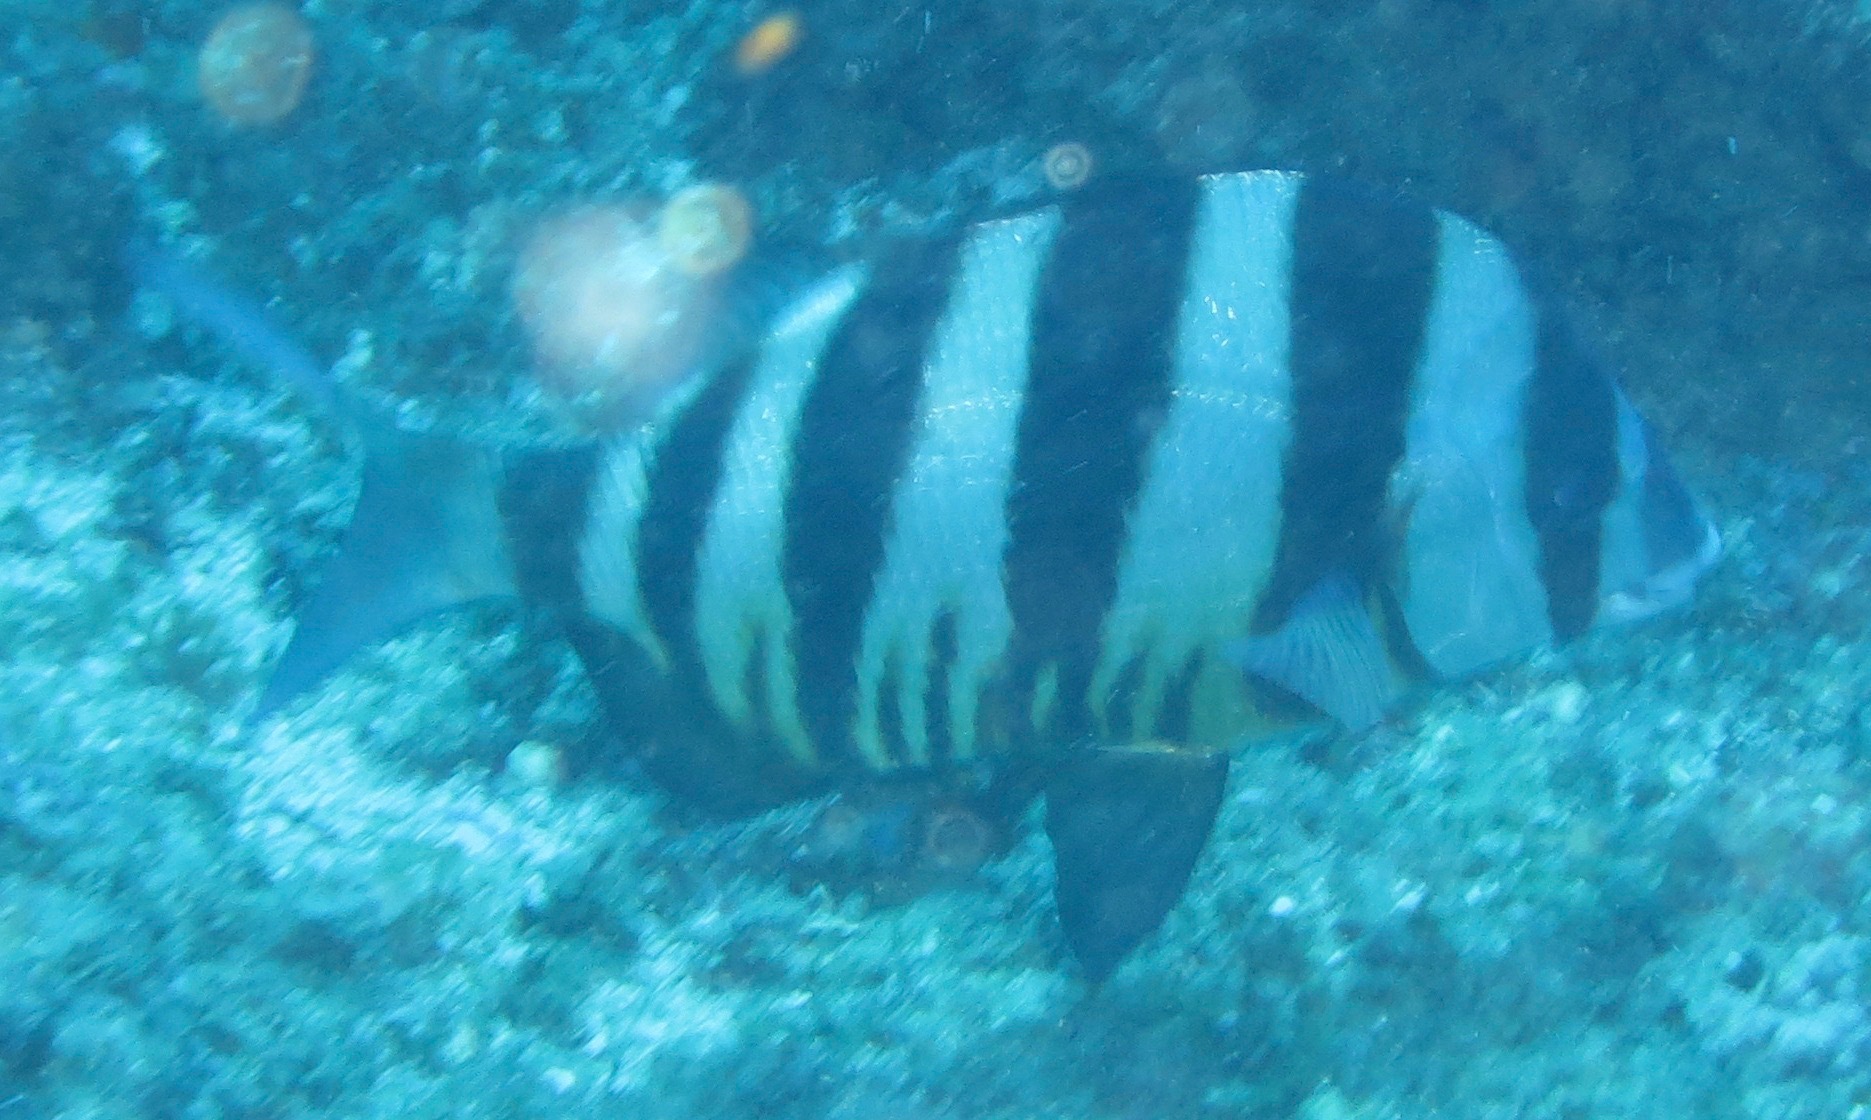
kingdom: Animalia
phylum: Chordata
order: Perciformes
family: Sparidae
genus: Diplodus
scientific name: Diplodus hottentotus
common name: Zebra
